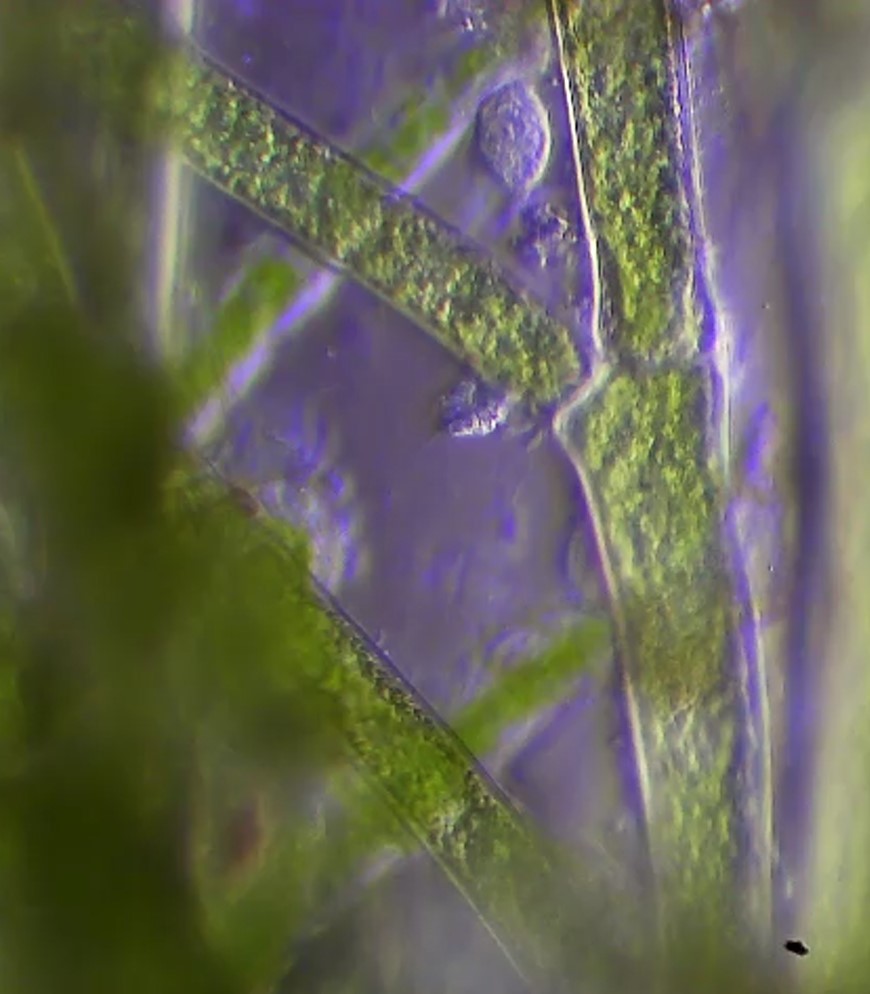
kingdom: Plantae
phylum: Chlorophyta
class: Ulvophyceae
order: Cladophorales
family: Cladophoraceae
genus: Cladophora
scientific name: Cladophora
